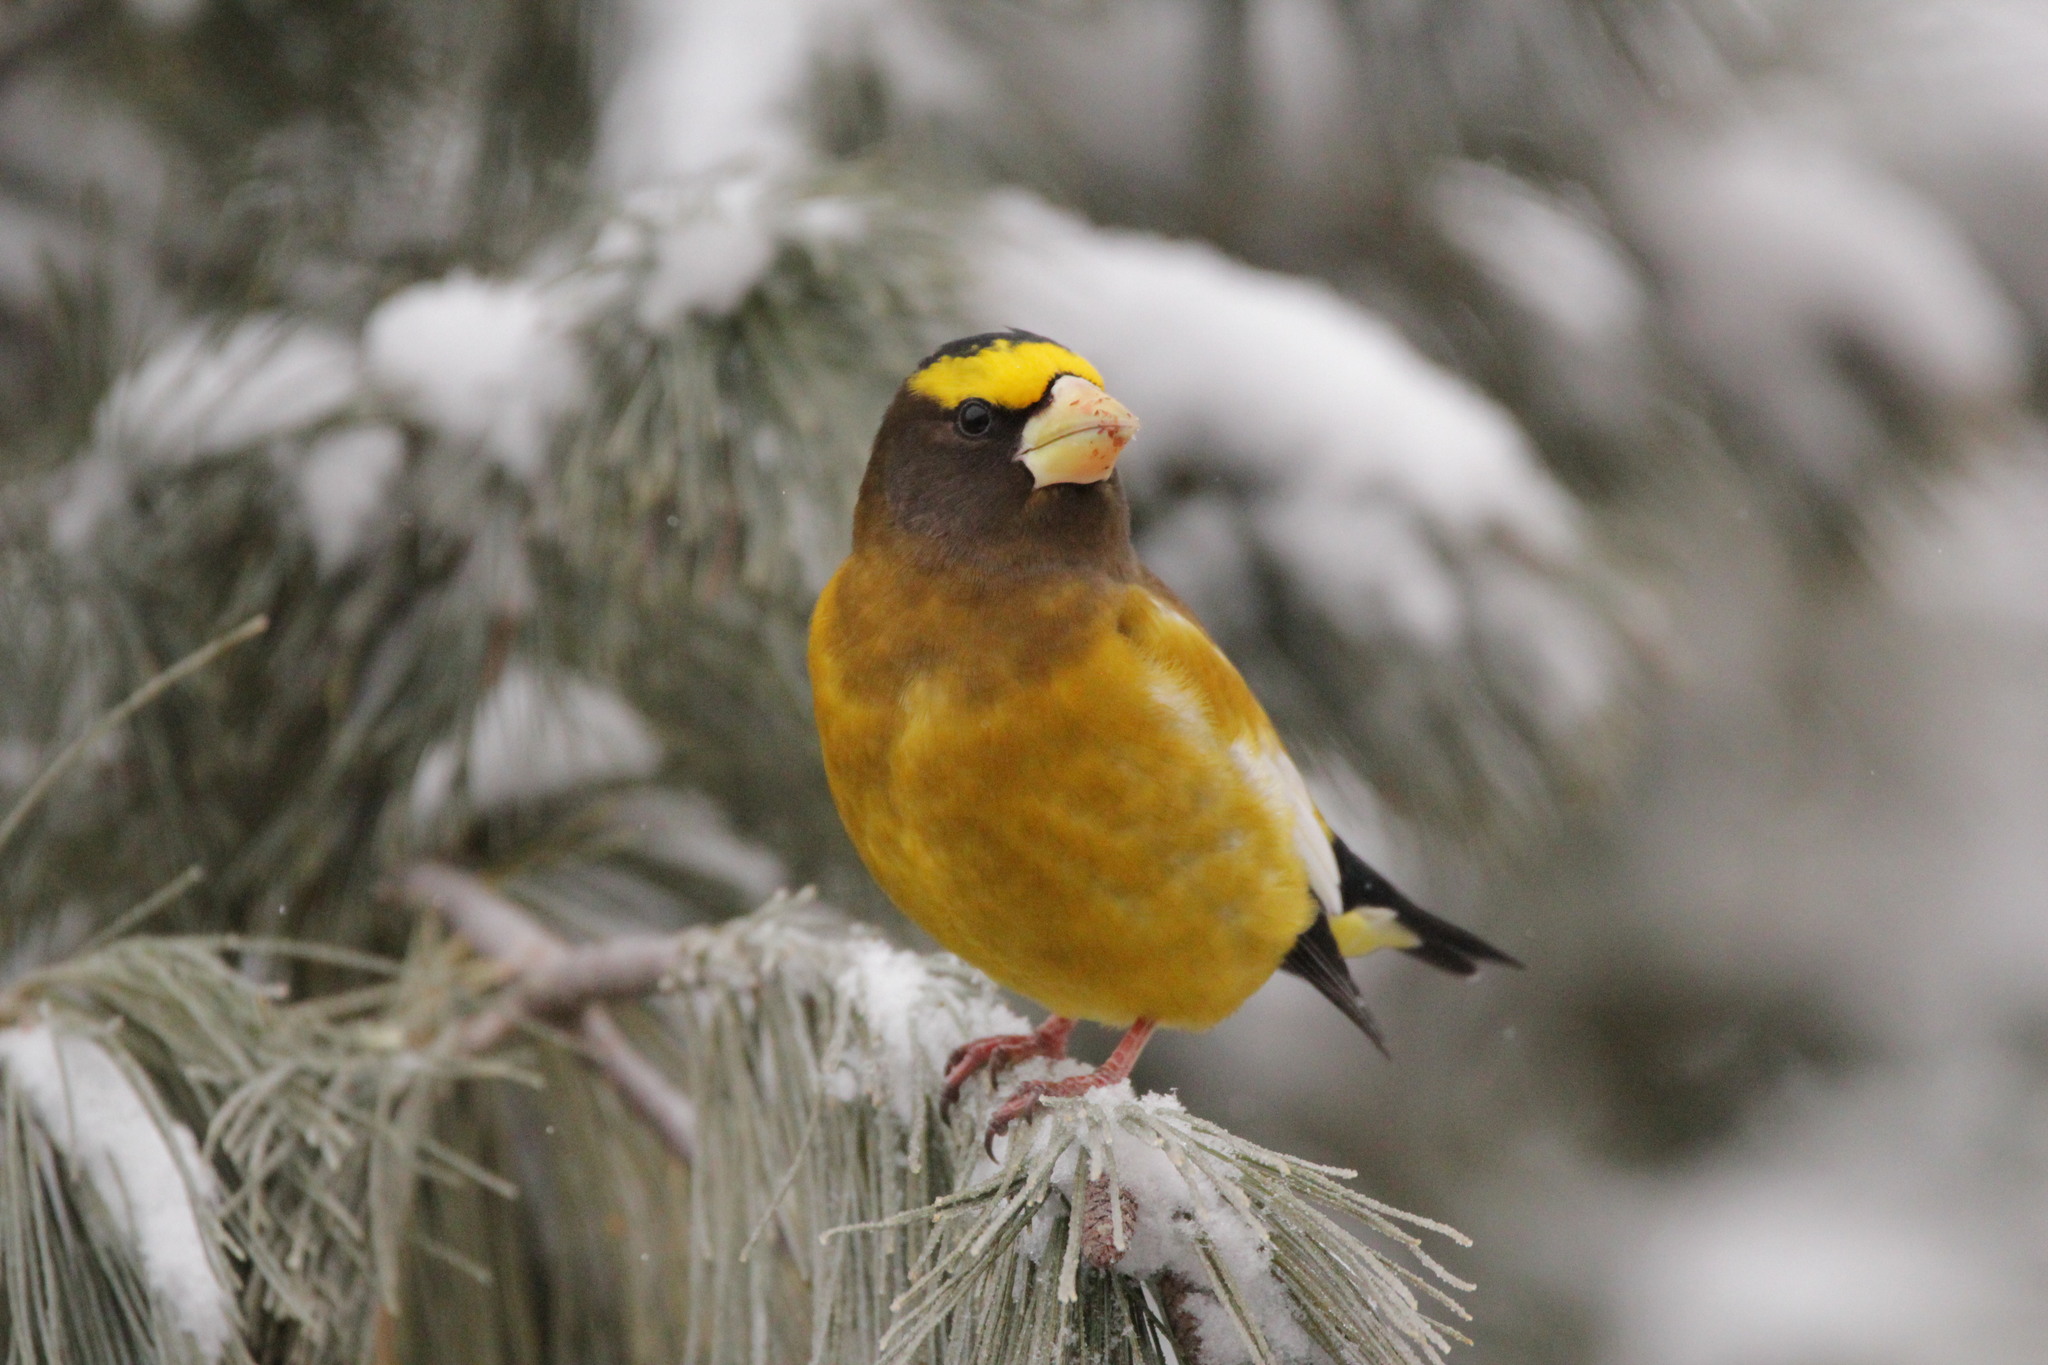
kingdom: Animalia
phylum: Chordata
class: Aves
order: Passeriformes
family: Fringillidae
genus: Hesperiphona
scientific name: Hesperiphona vespertina
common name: Evening grosbeak
